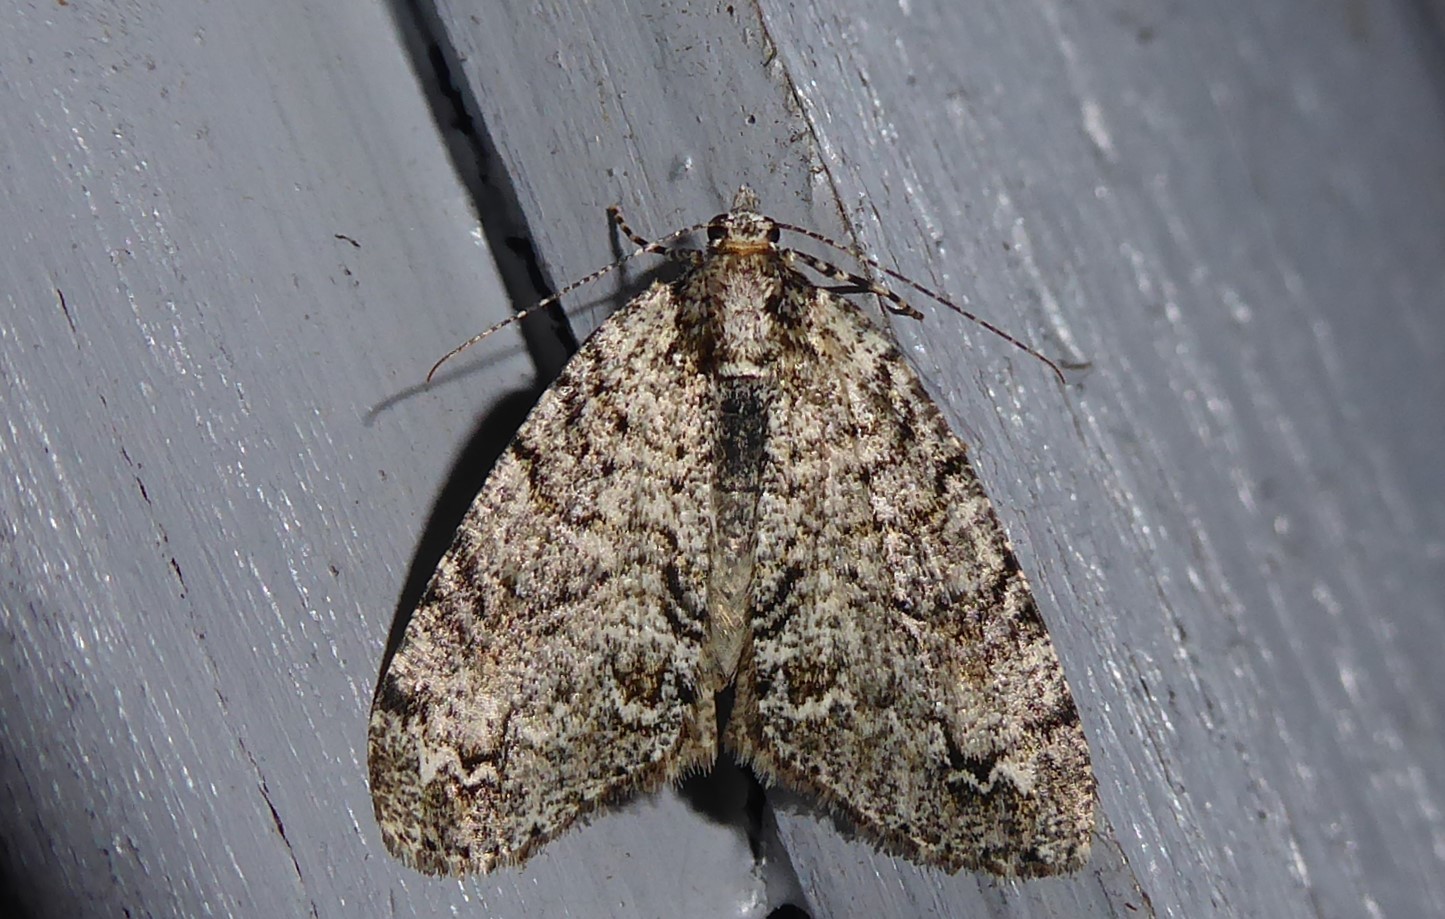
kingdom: Animalia
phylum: Arthropoda
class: Insecta
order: Lepidoptera
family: Geometridae
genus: Pseudocoremia
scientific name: Pseudocoremia suavis
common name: Common forest looper
